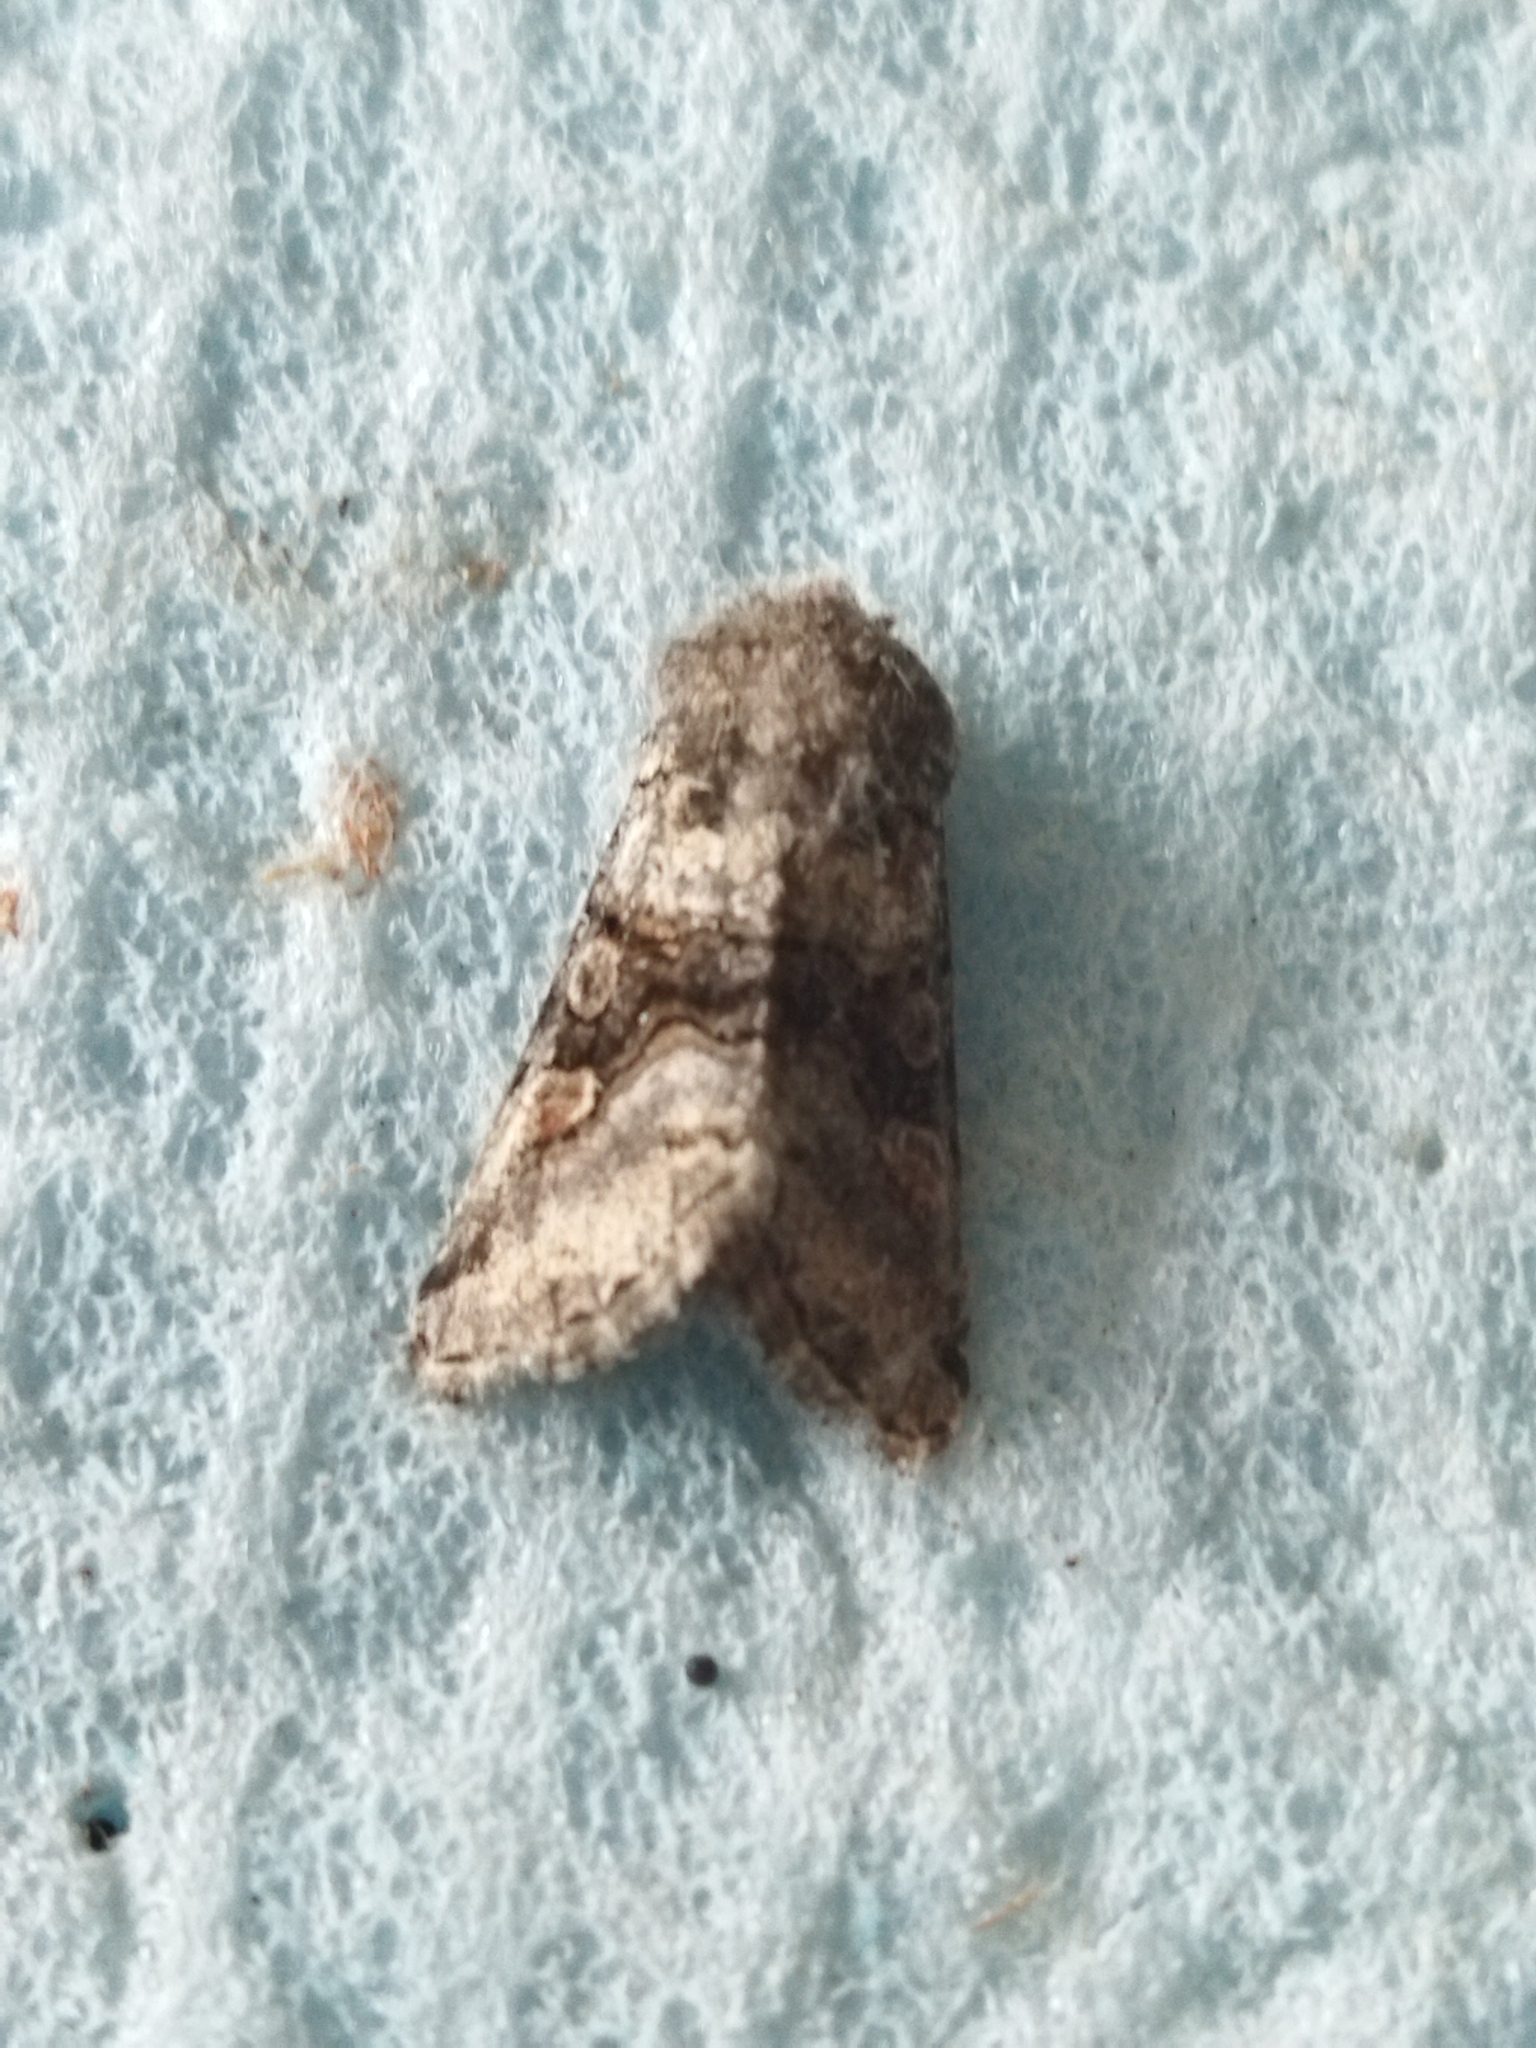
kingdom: Animalia
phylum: Arthropoda
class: Insecta
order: Lepidoptera
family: Noctuidae
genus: Cleoceris
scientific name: Cleoceris scoriacea
